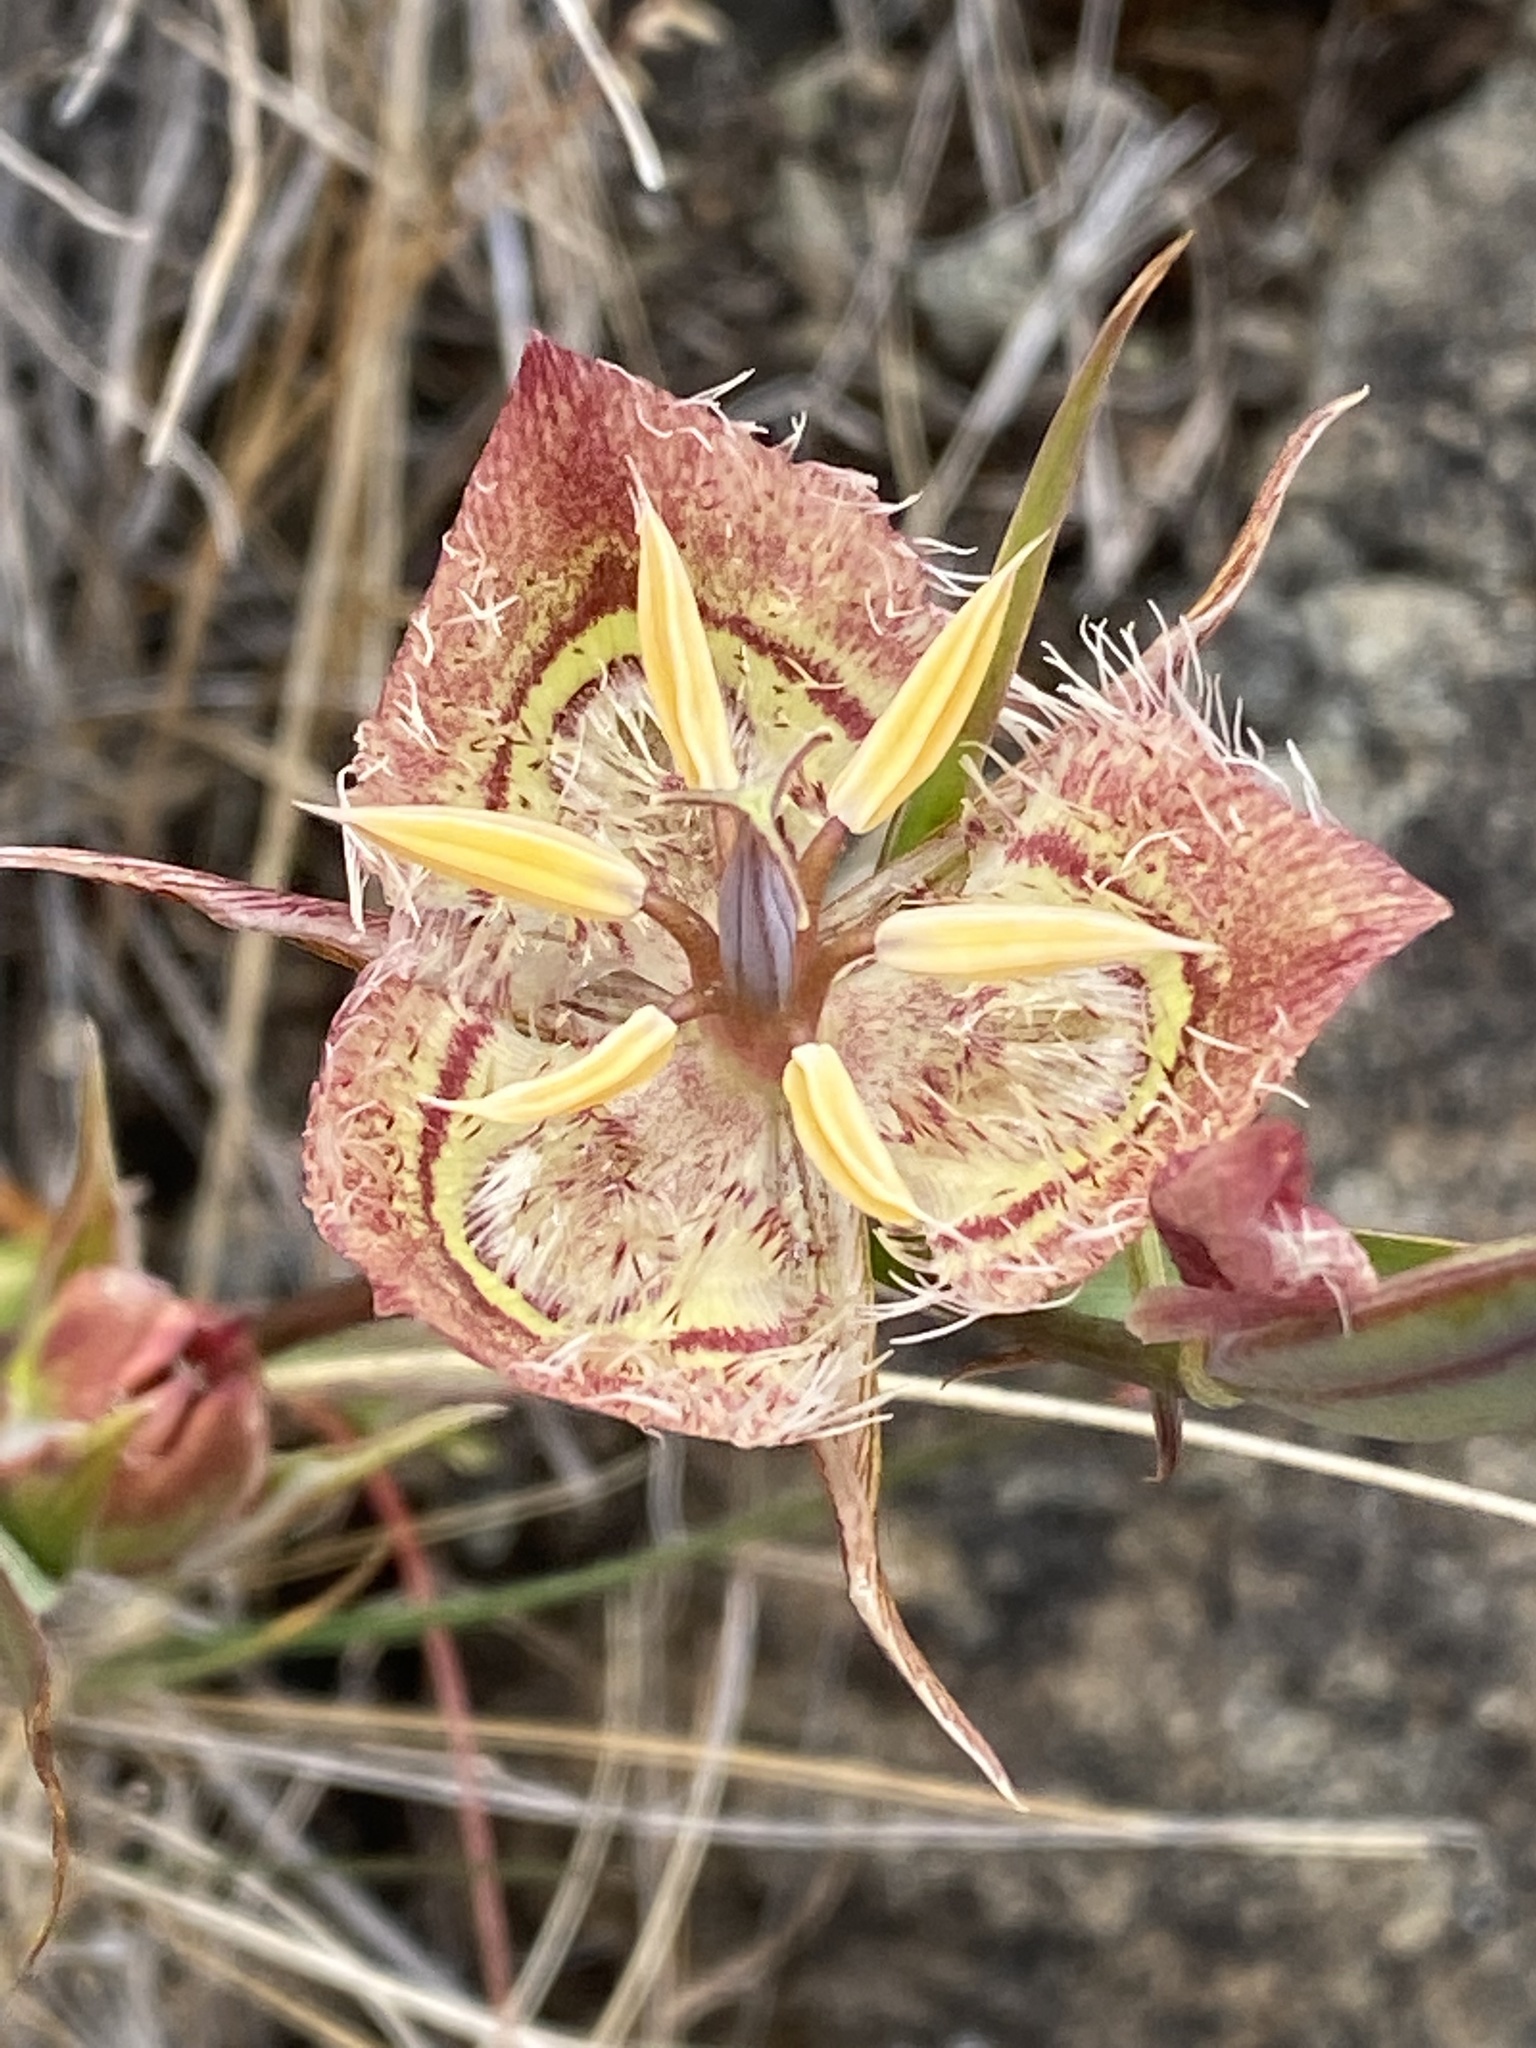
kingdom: Plantae
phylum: Tracheophyta
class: Liliopsida
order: Liliales
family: Liliaceae
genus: Calochortus
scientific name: Calochortus tiburonensis
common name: Tiburon mariposa-lily
